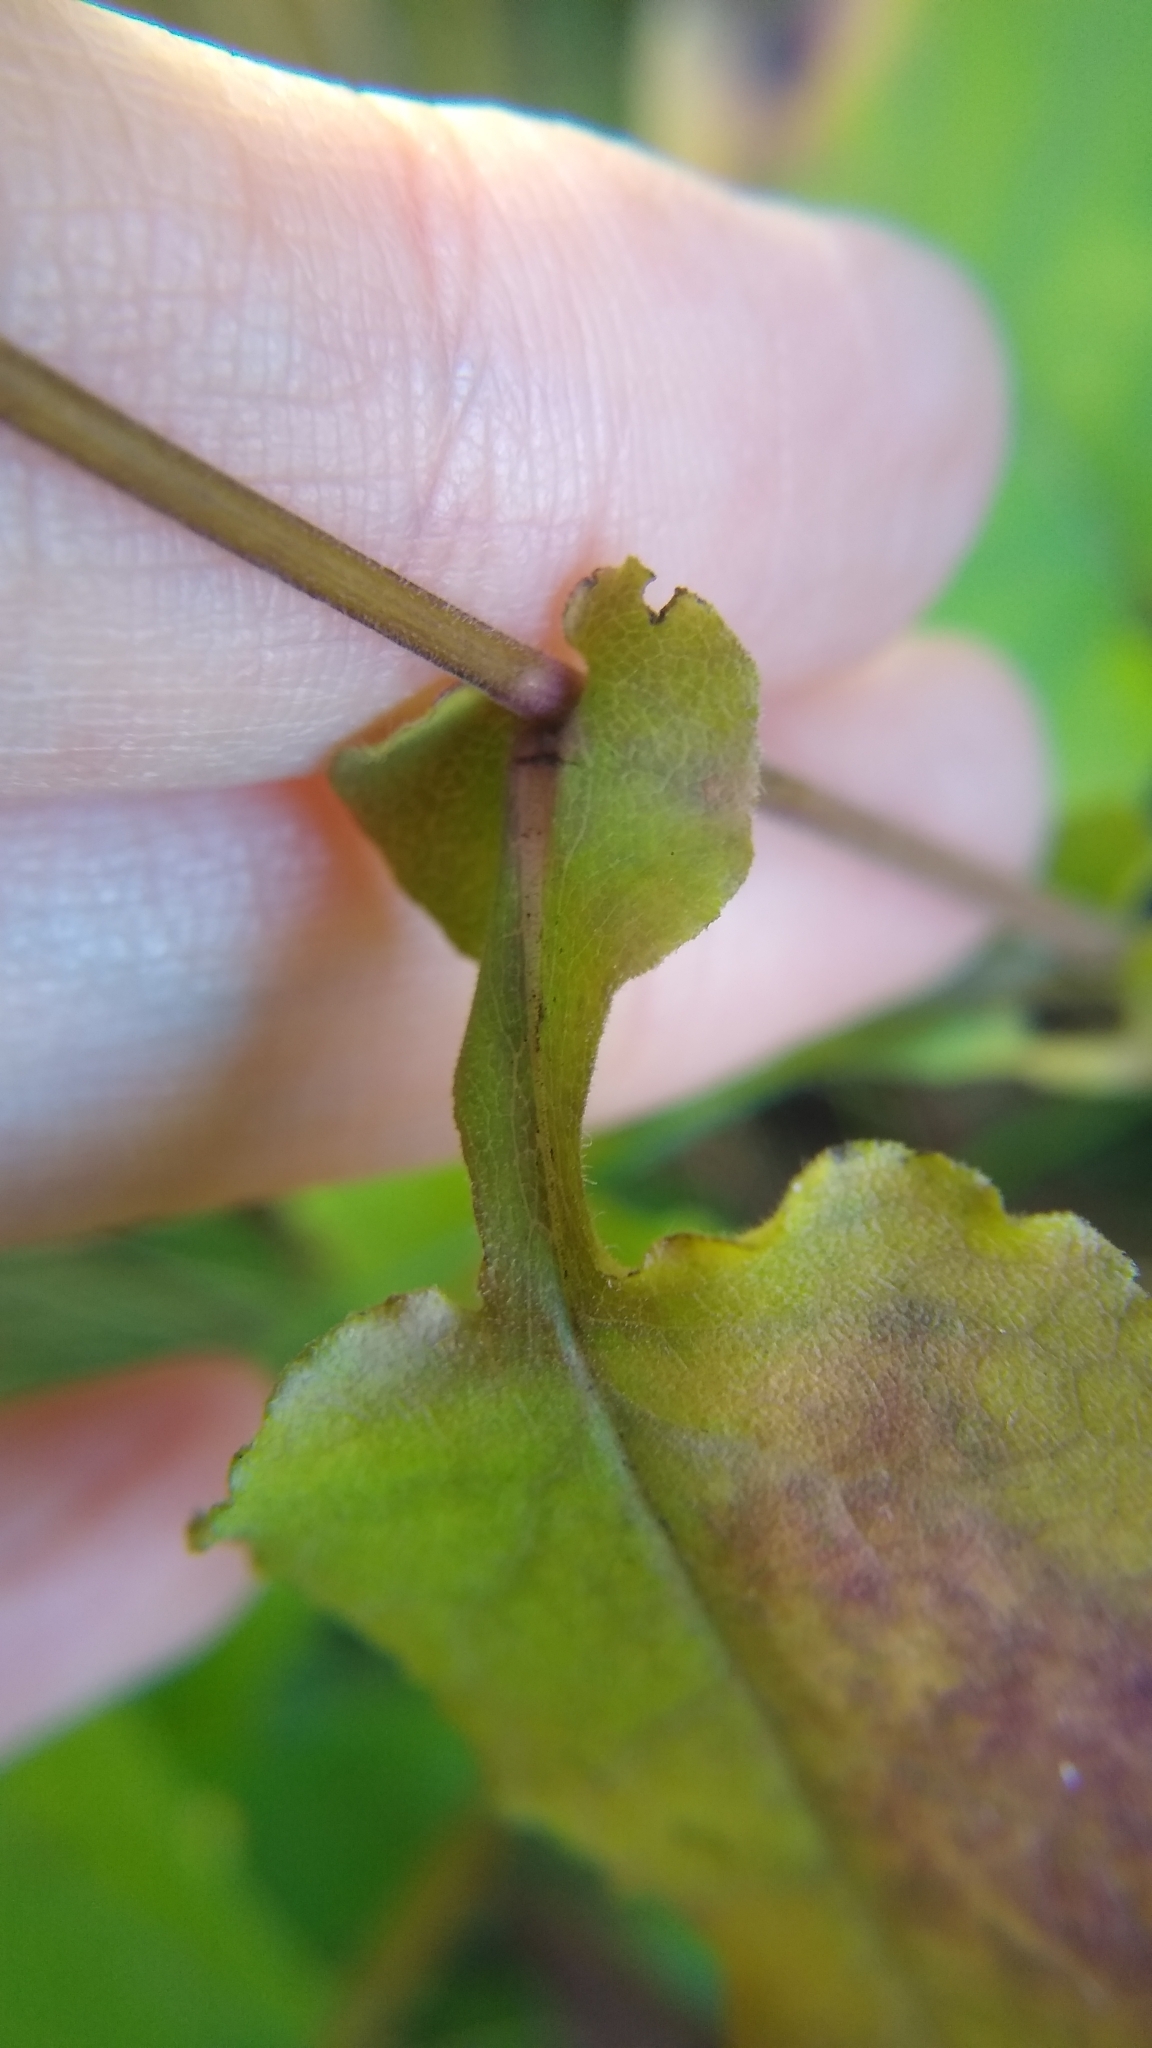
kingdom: Plantae
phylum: Tracheophyta
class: Magnoliopsida
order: Asterales
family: Asteraceae
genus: Symphyotrichum
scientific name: Symphyotrichum undulatum
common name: Clasping heart-leaf aster
